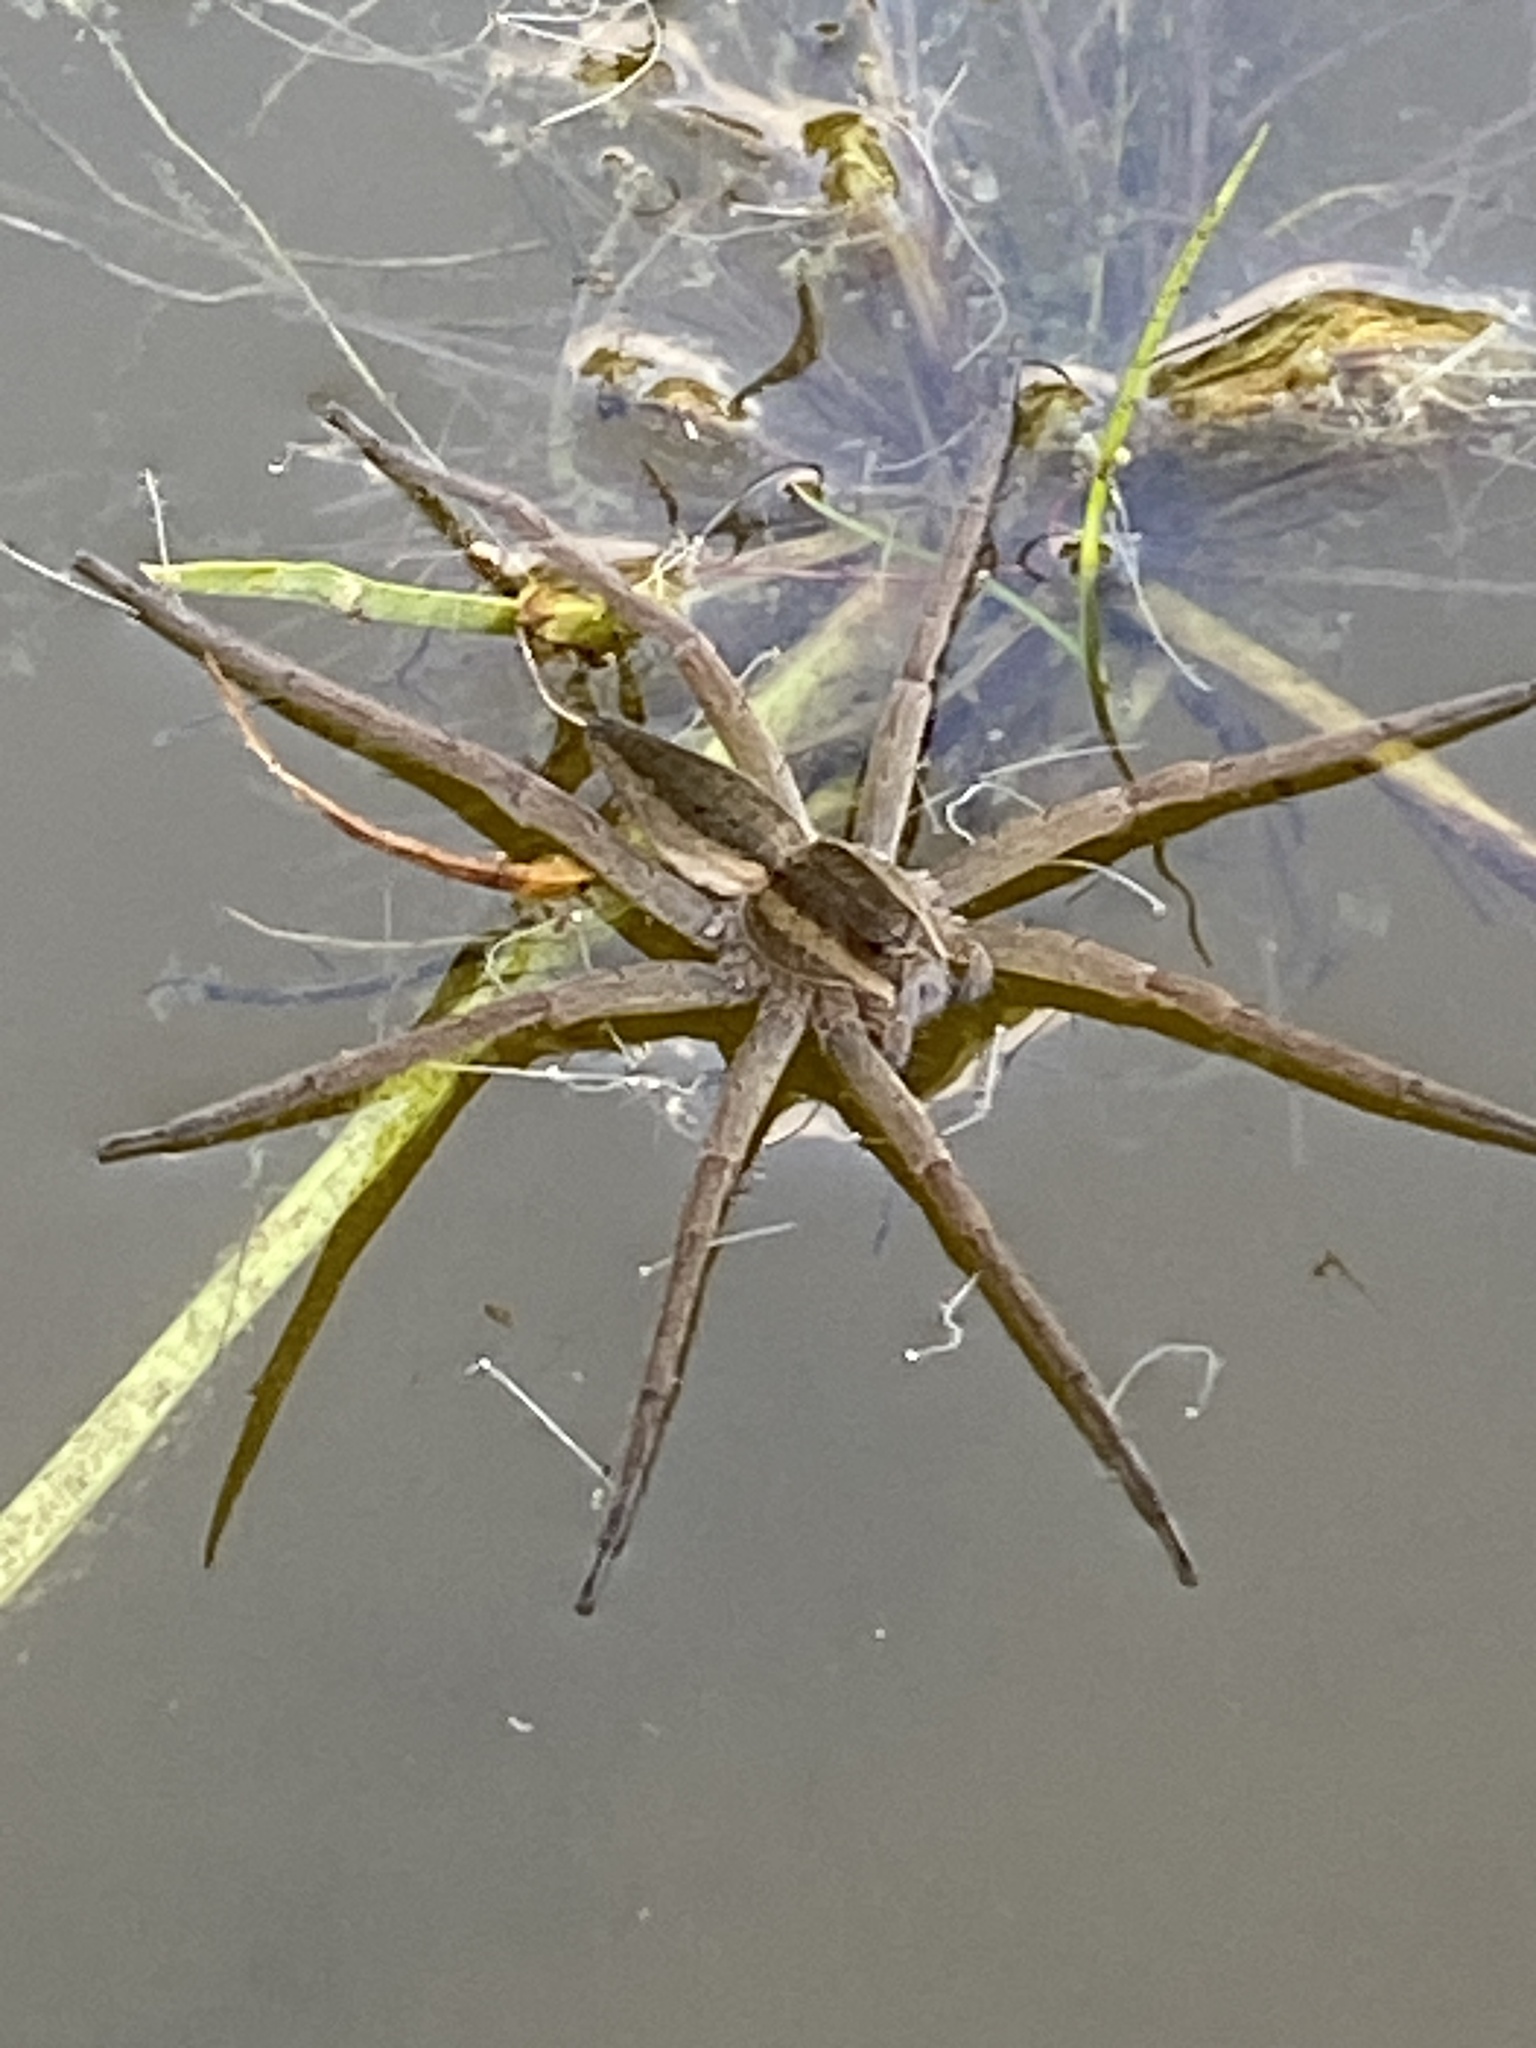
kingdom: Animalia
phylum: Arthropoda
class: Arachnida
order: Araneae
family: Pisauridae
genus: Nilus
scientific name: Nilus massajae
